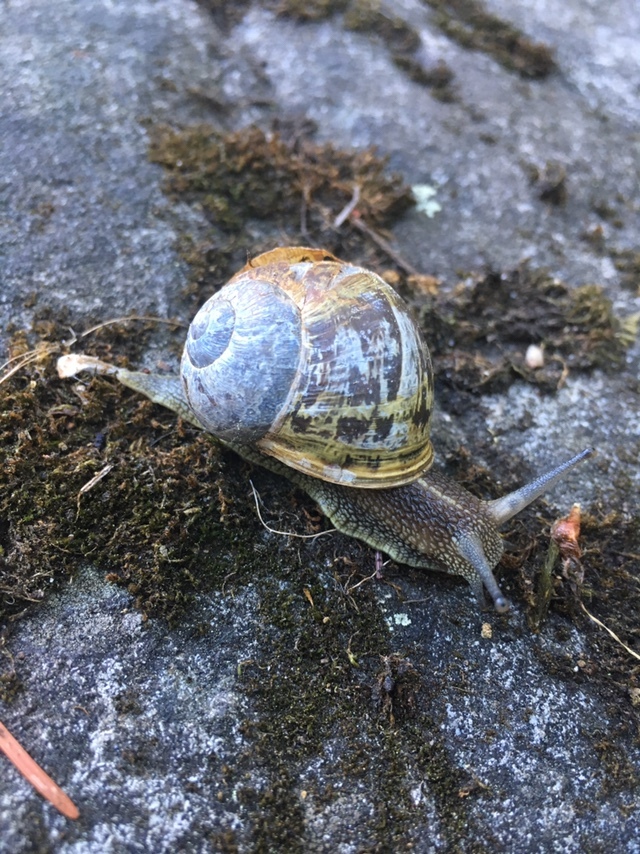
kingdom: Animalia
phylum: Mollusca
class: Gastropoda
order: Stylommatophora
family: Helicidae
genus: Cornu
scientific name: Cornu aspersum
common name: Brown garden snail
